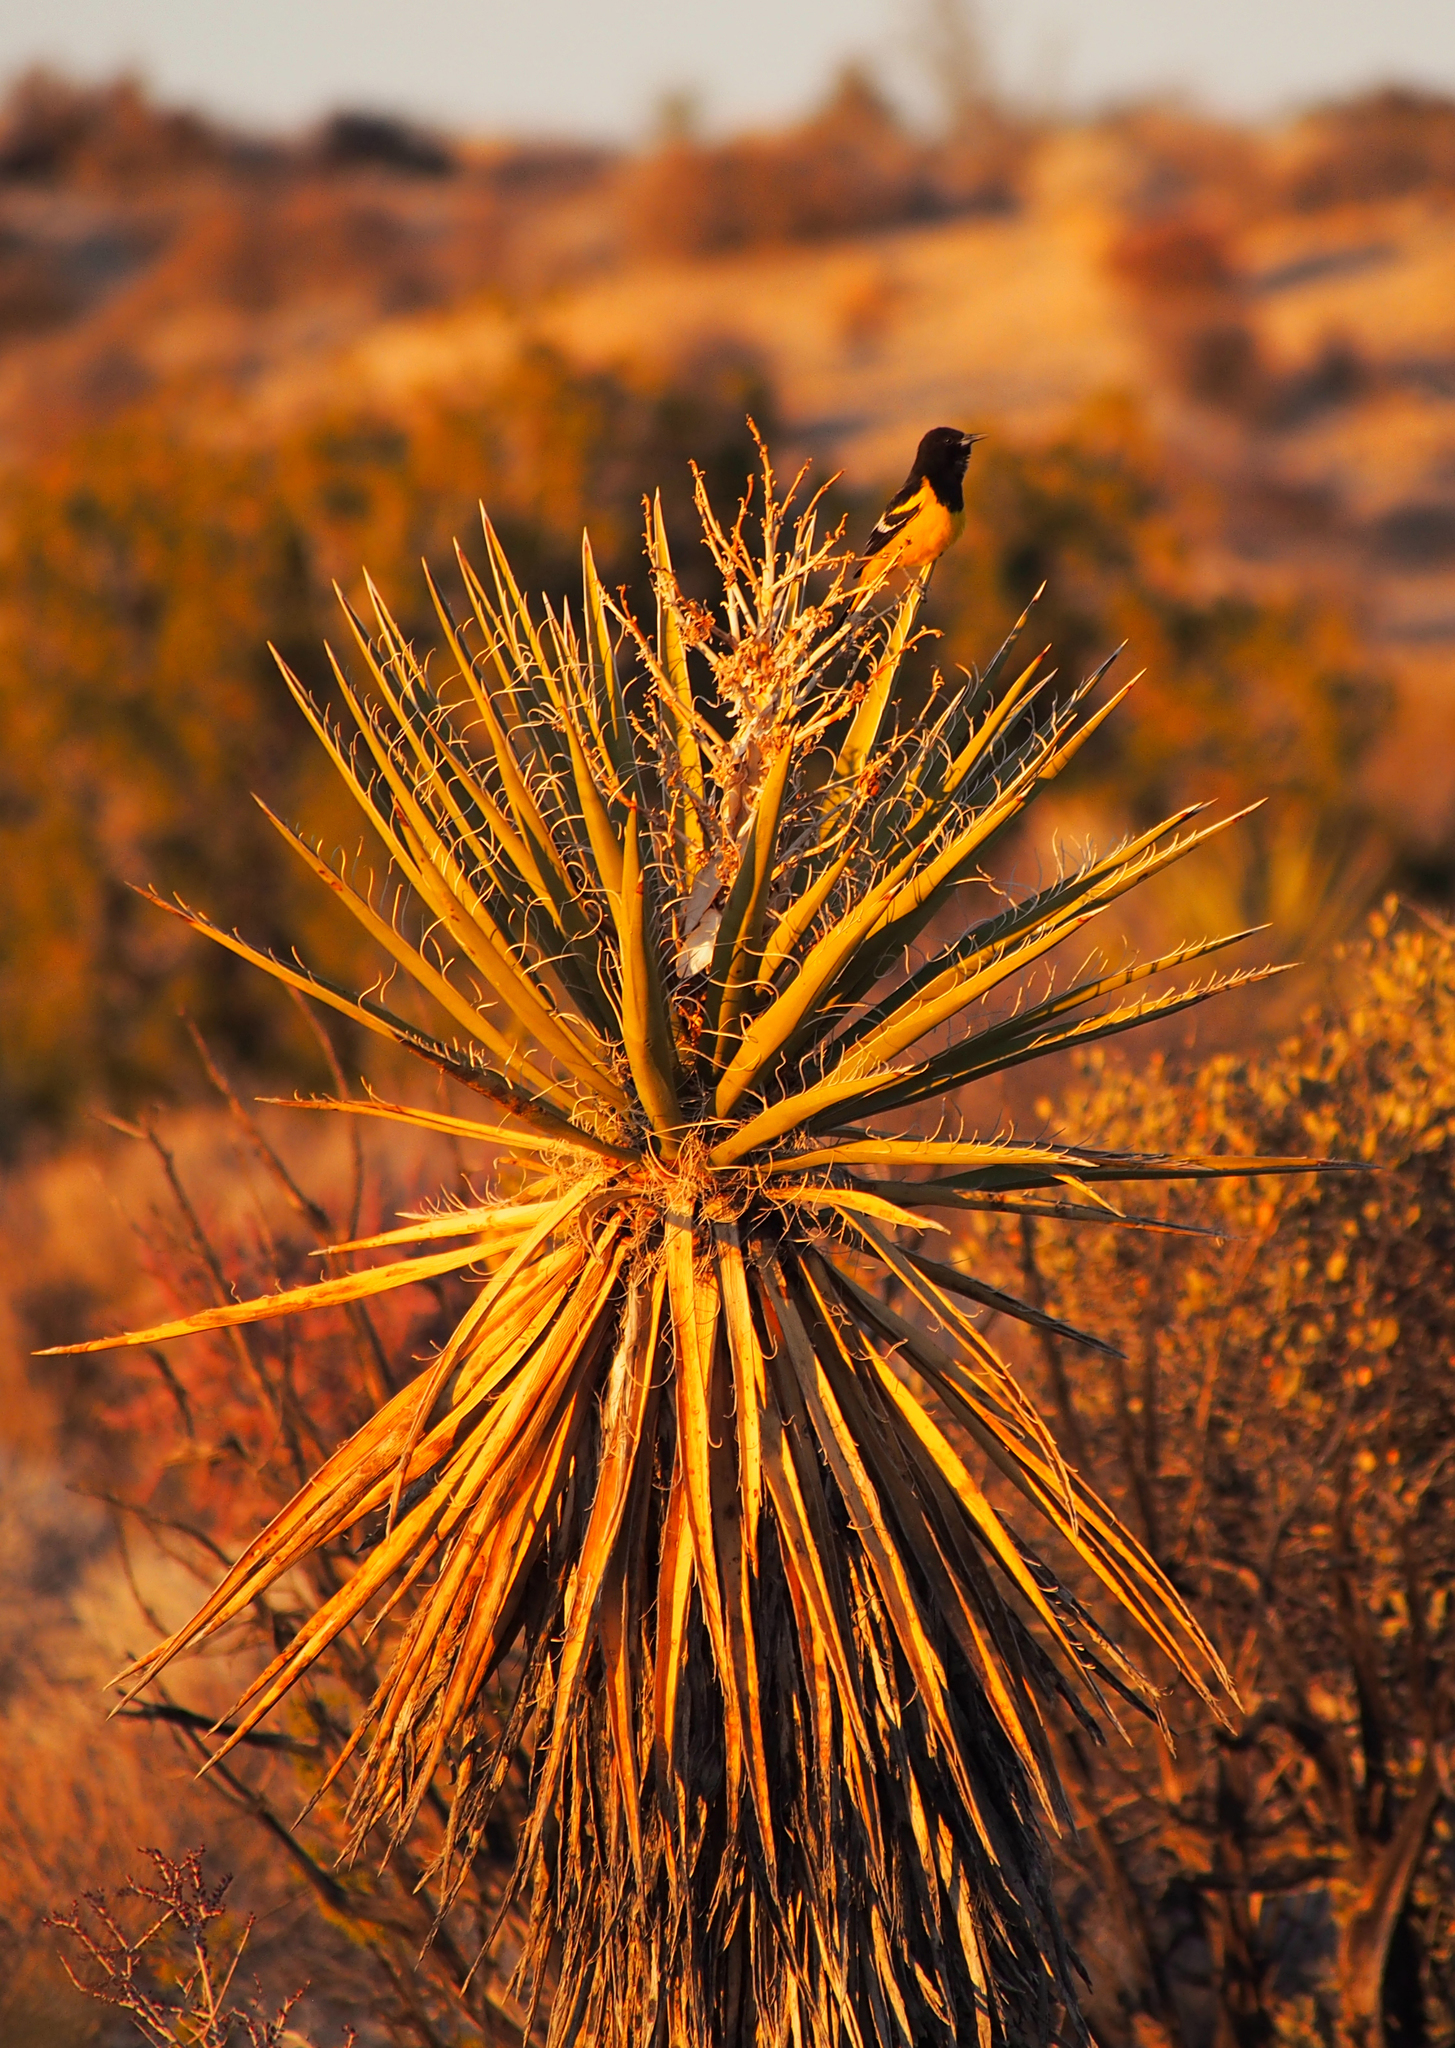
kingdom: Animalia
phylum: Chordata
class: Aves
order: Passeriformes
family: Icteridae
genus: Icterus
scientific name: Icterus parisorum
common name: Scott's oriole
